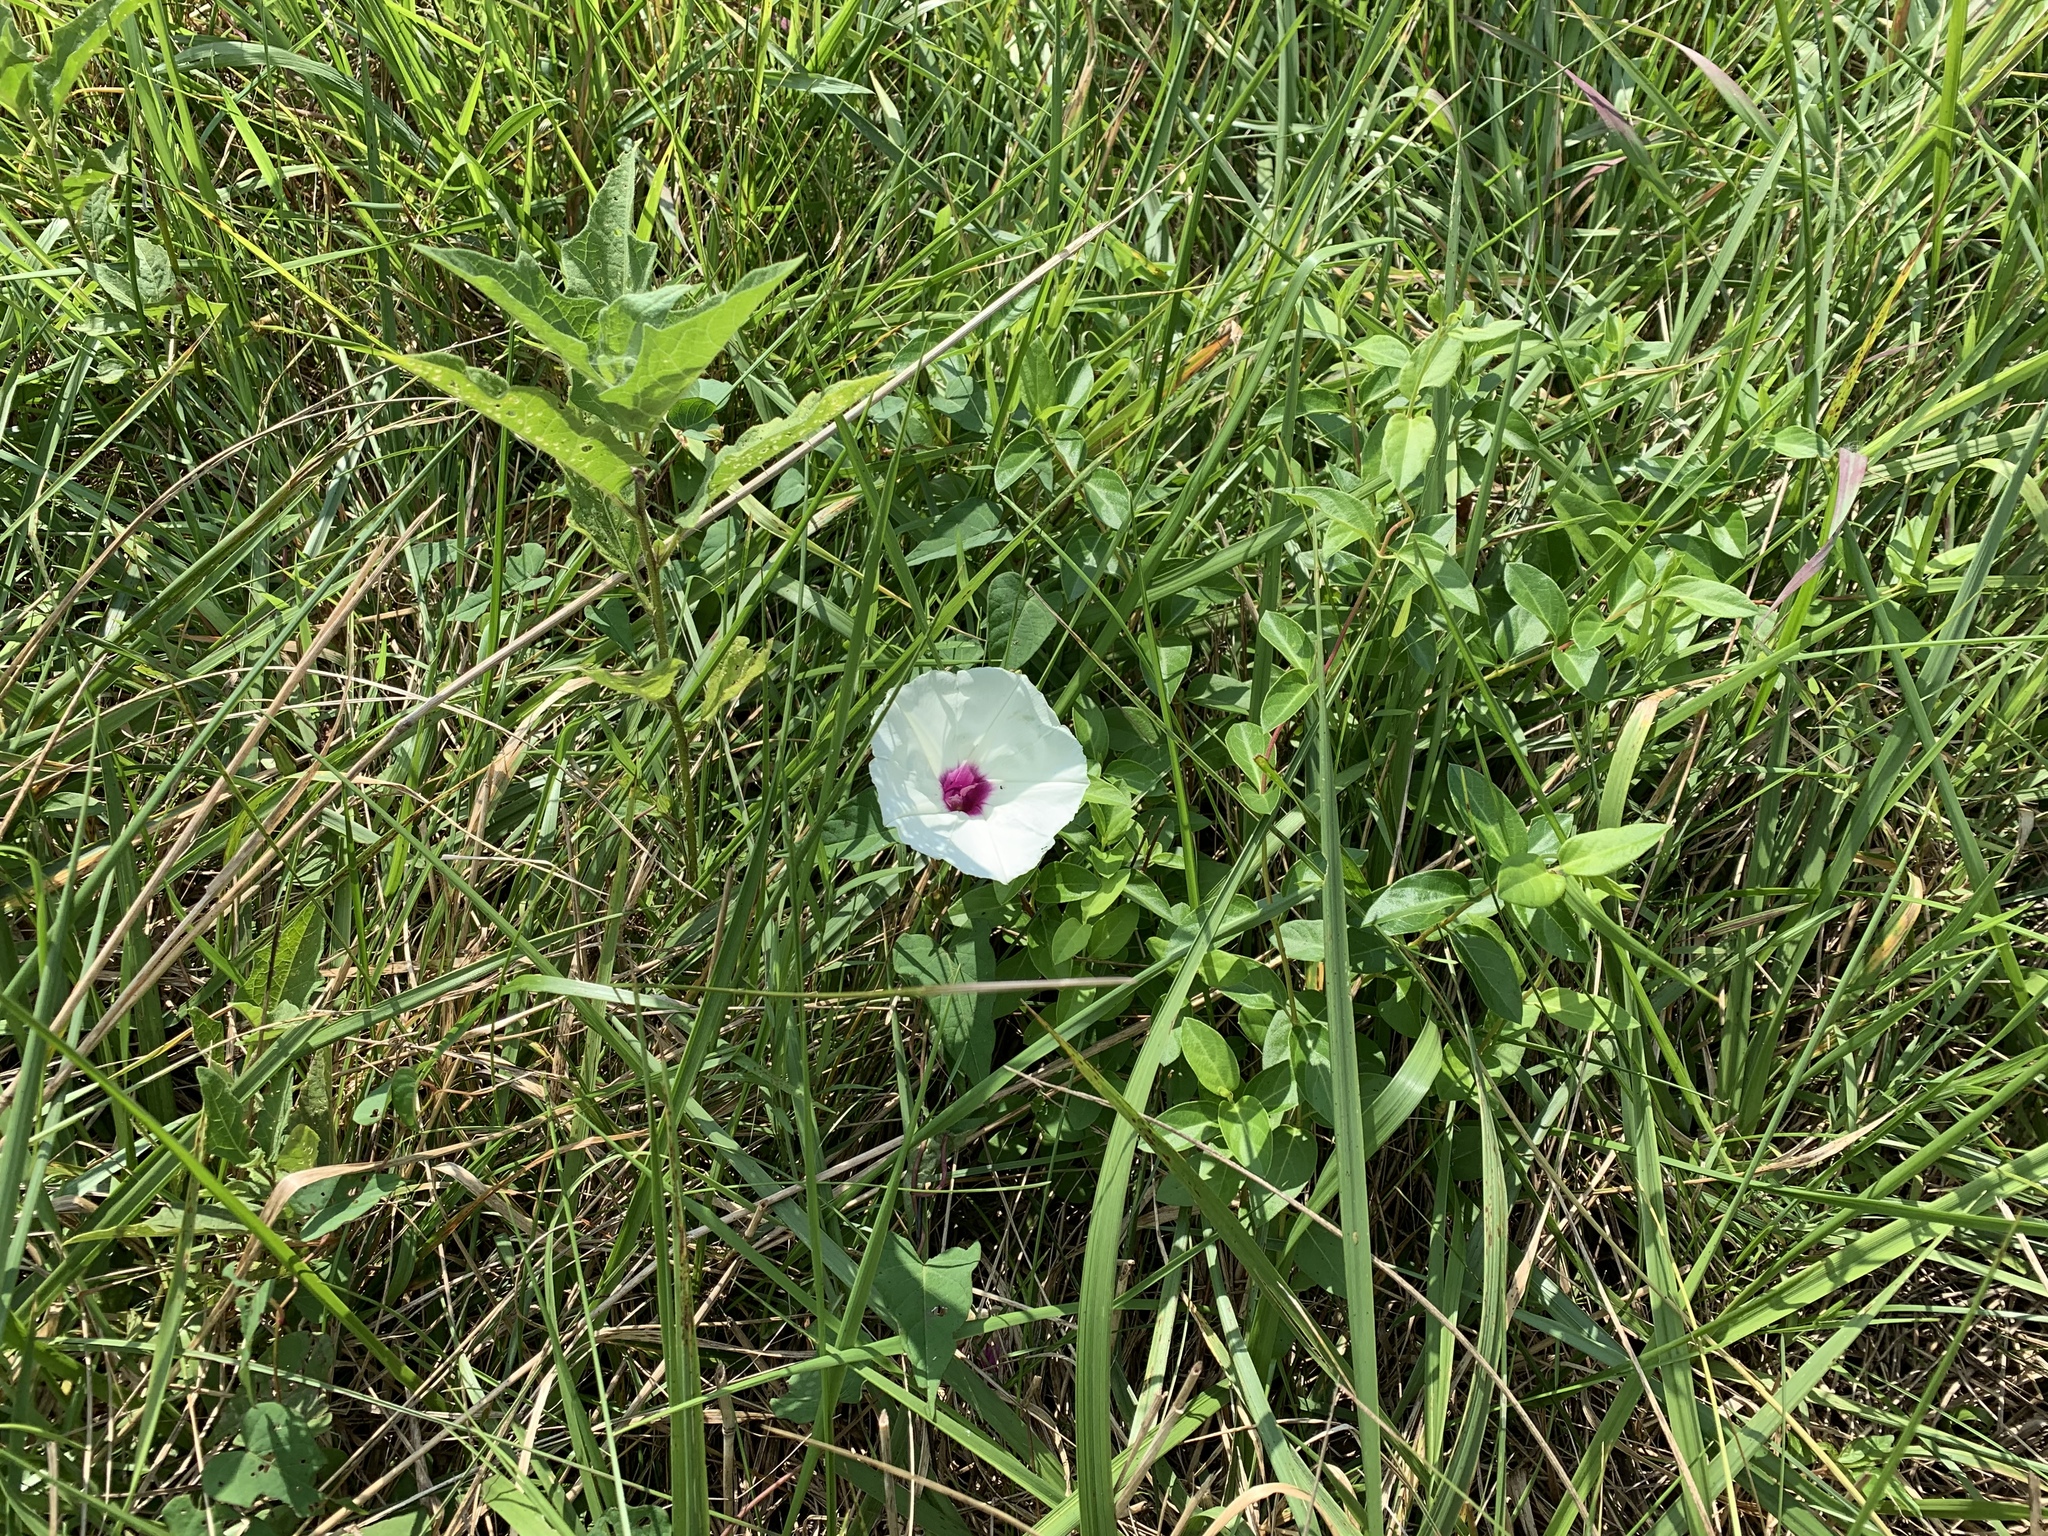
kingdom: Plantae
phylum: Tracheophyta
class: Magnoliopsida
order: Solanales
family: Convolvulaceae
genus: Ipomoea
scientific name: Ipomoea pandurata
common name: Man-of-the-earth
